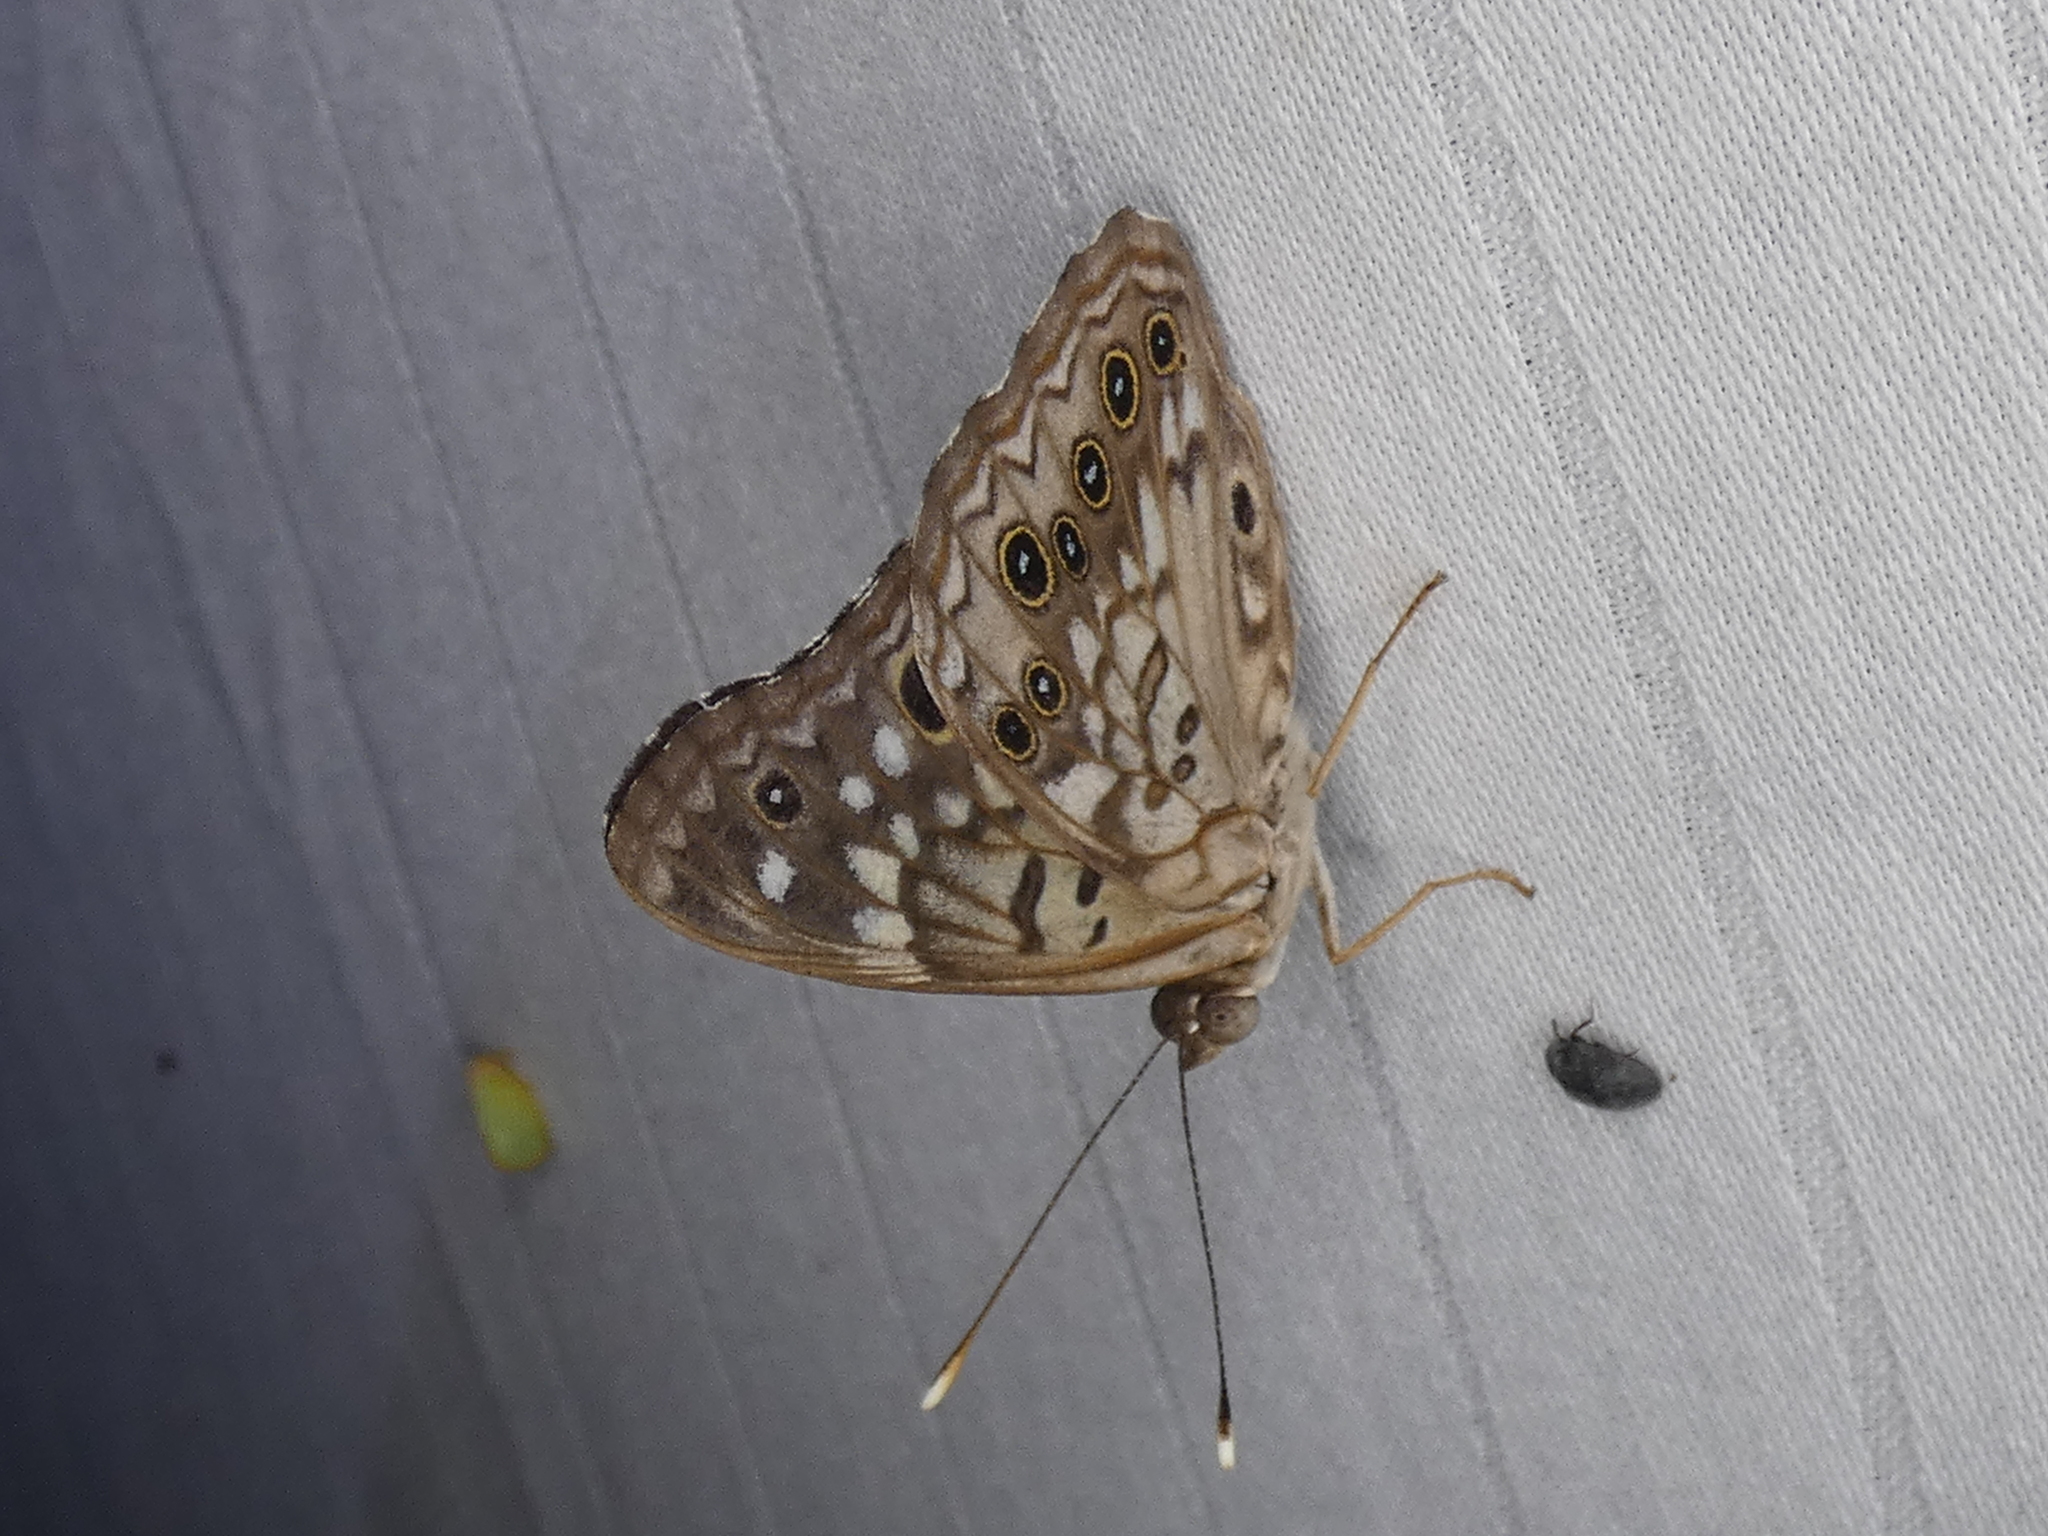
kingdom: Animalia
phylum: Arthropoda
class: Insecta
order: Lepidoptera
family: Nymphalidae
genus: Asterocampa
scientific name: Asterocampa celtis
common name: Hackberry emperor
